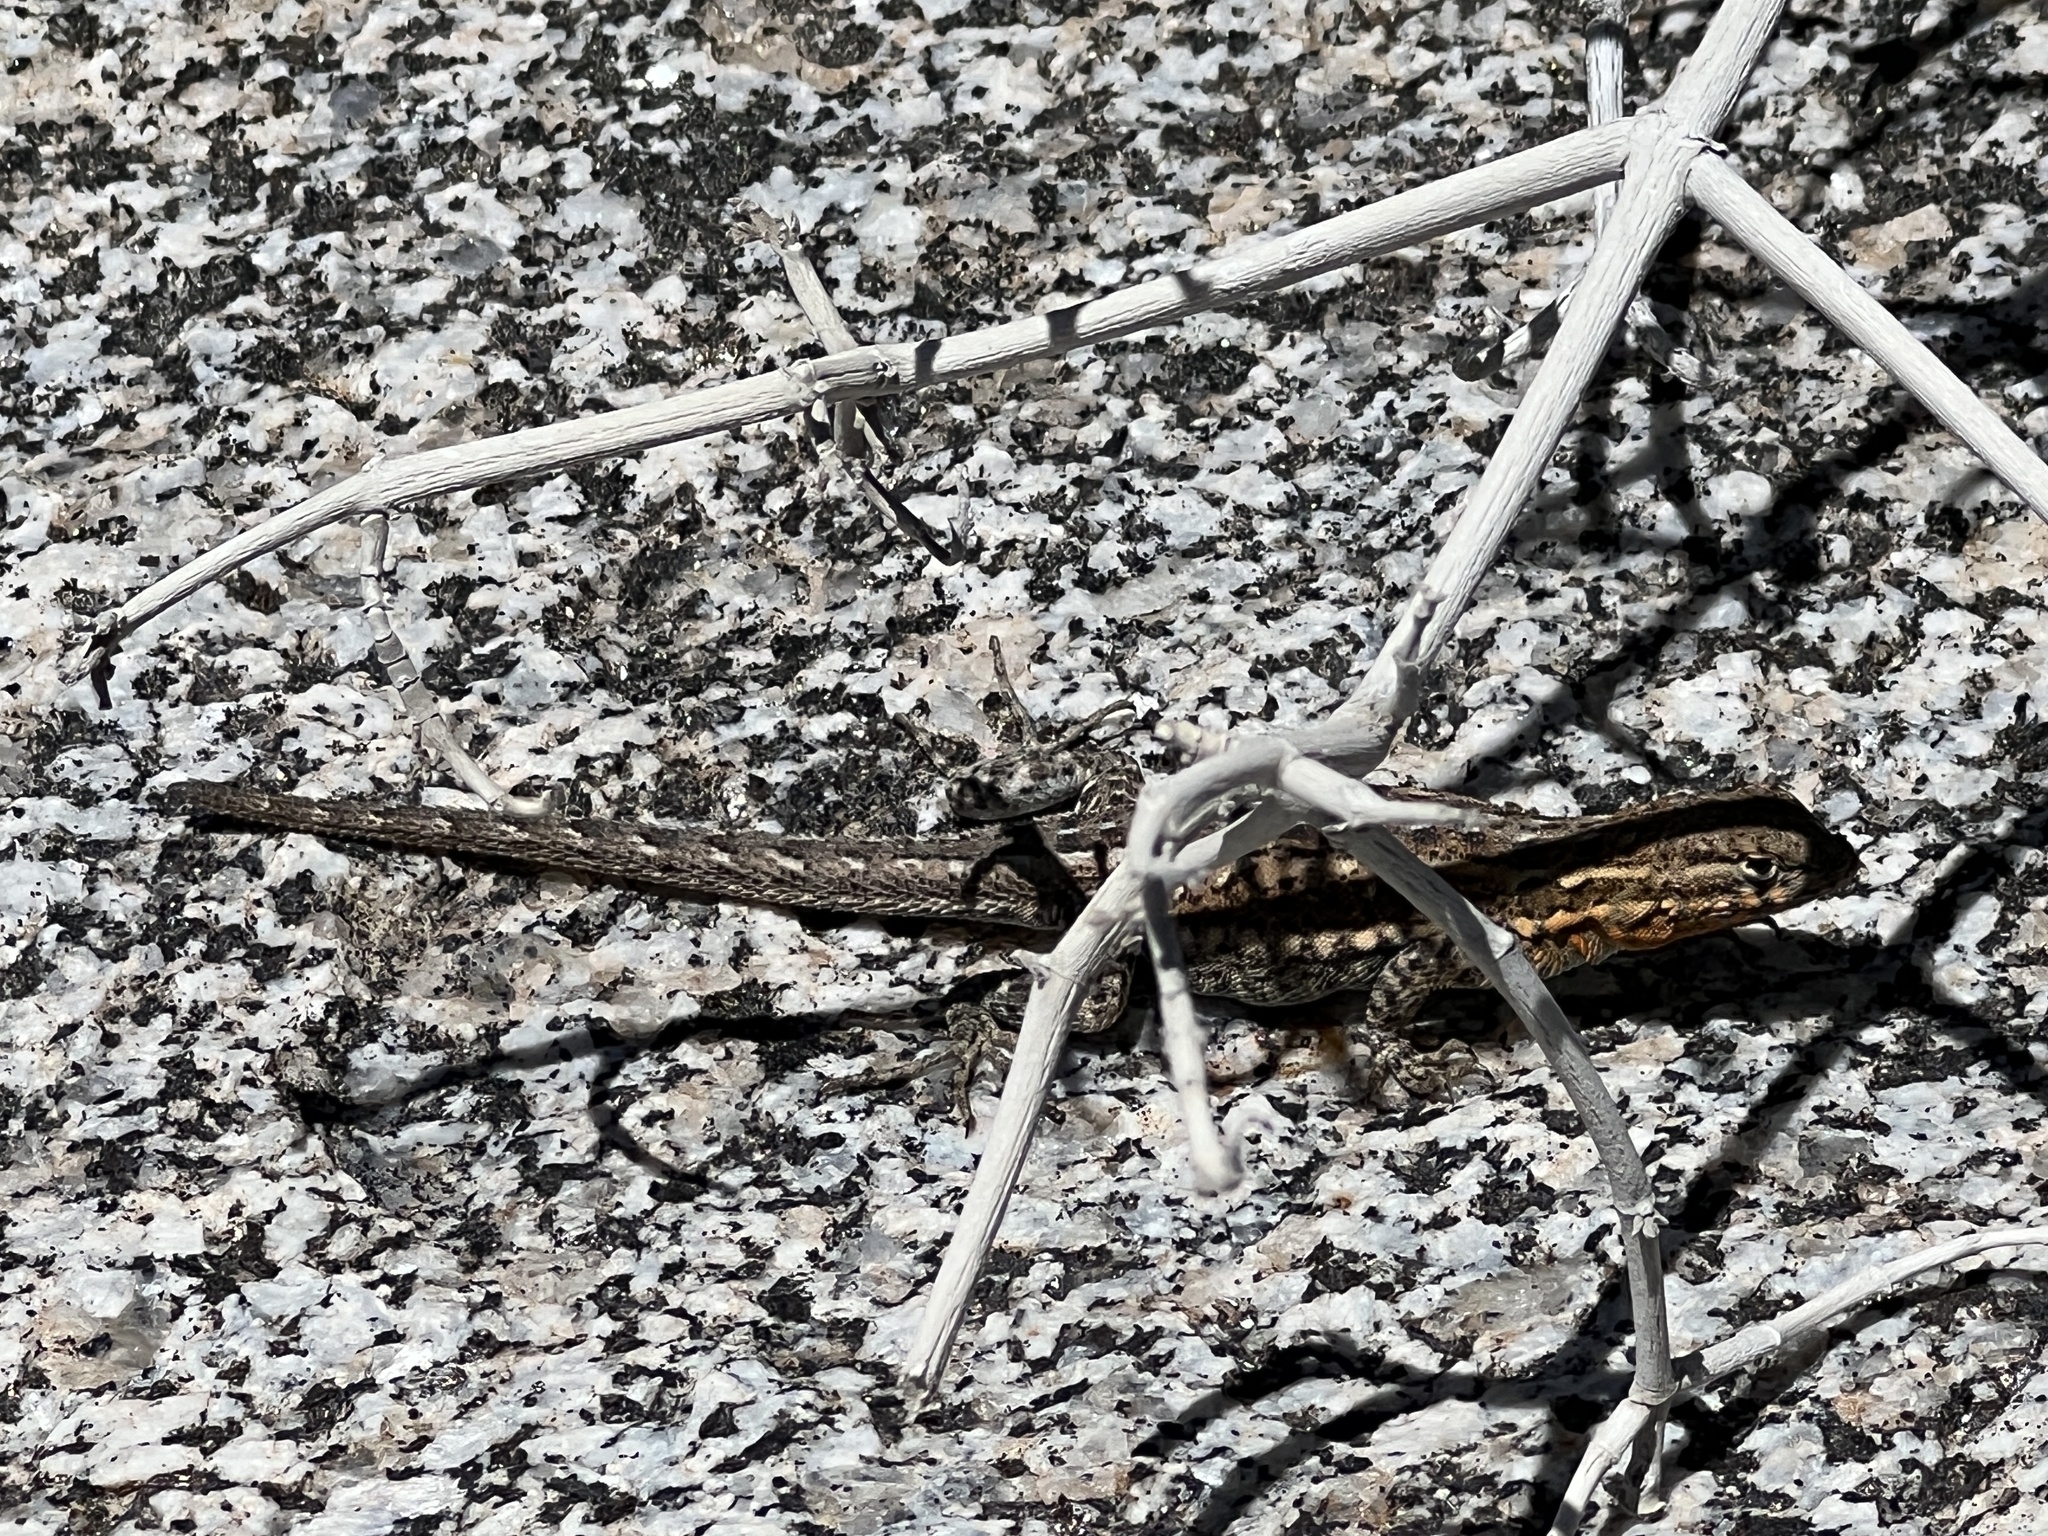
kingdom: Animalia
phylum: Chordata
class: Squamata
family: Phrynosomatidae
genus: Uta
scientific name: Uta stansburiana
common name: Side-blotched lizard
